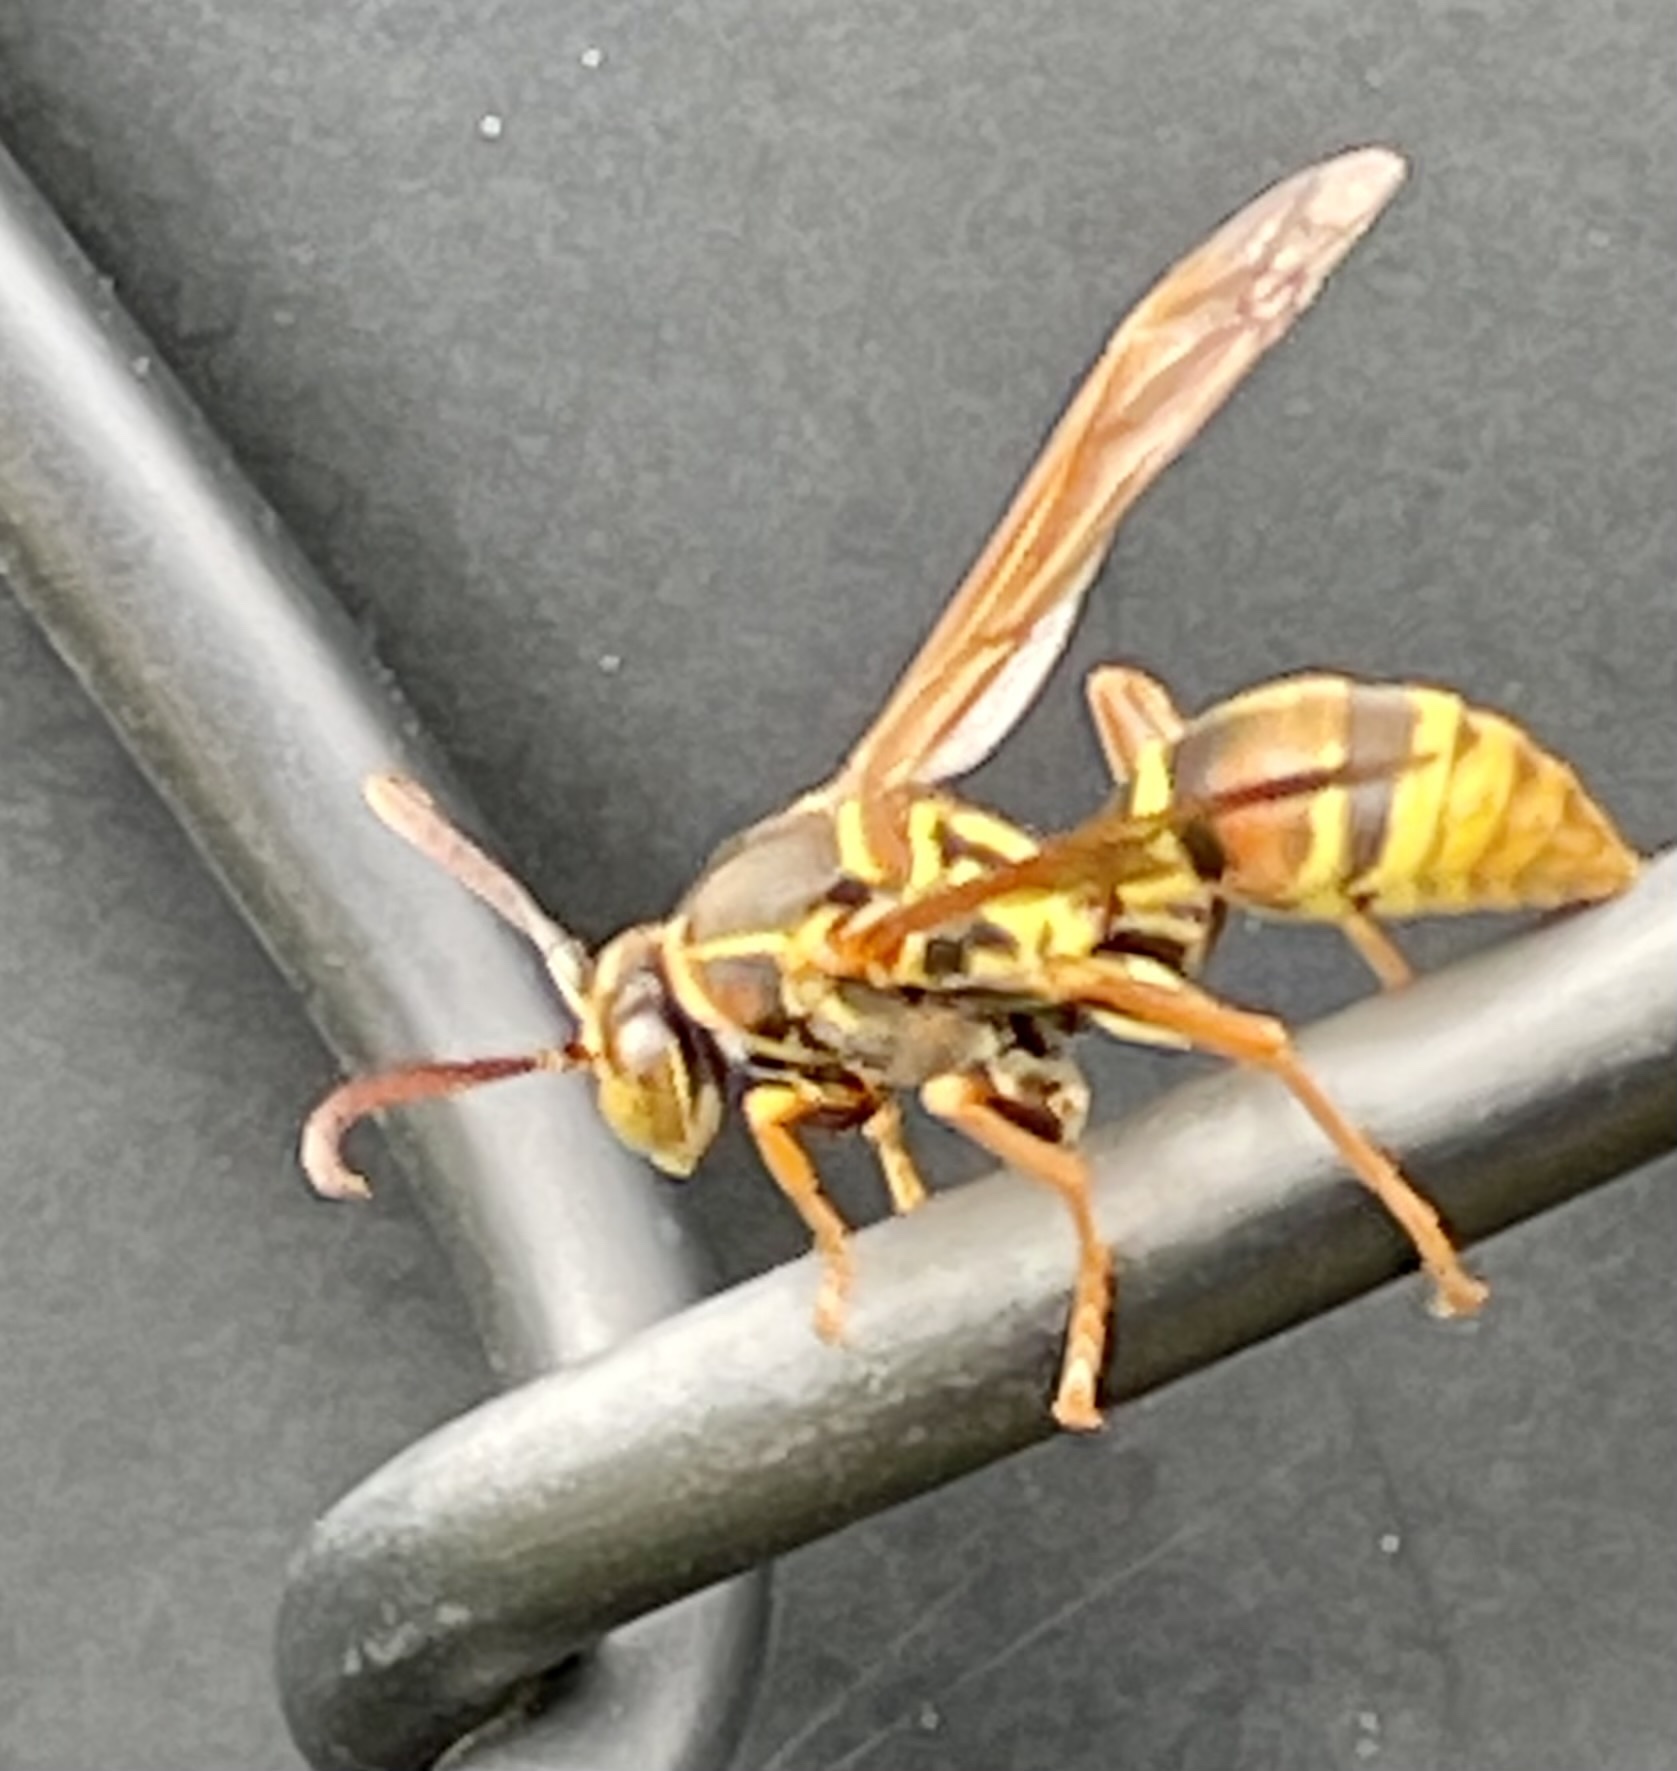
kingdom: Animalia
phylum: Arthropoda
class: Insecta
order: Hymenoptera
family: Eumenidae
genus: Polistes
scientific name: Polistes humilis
